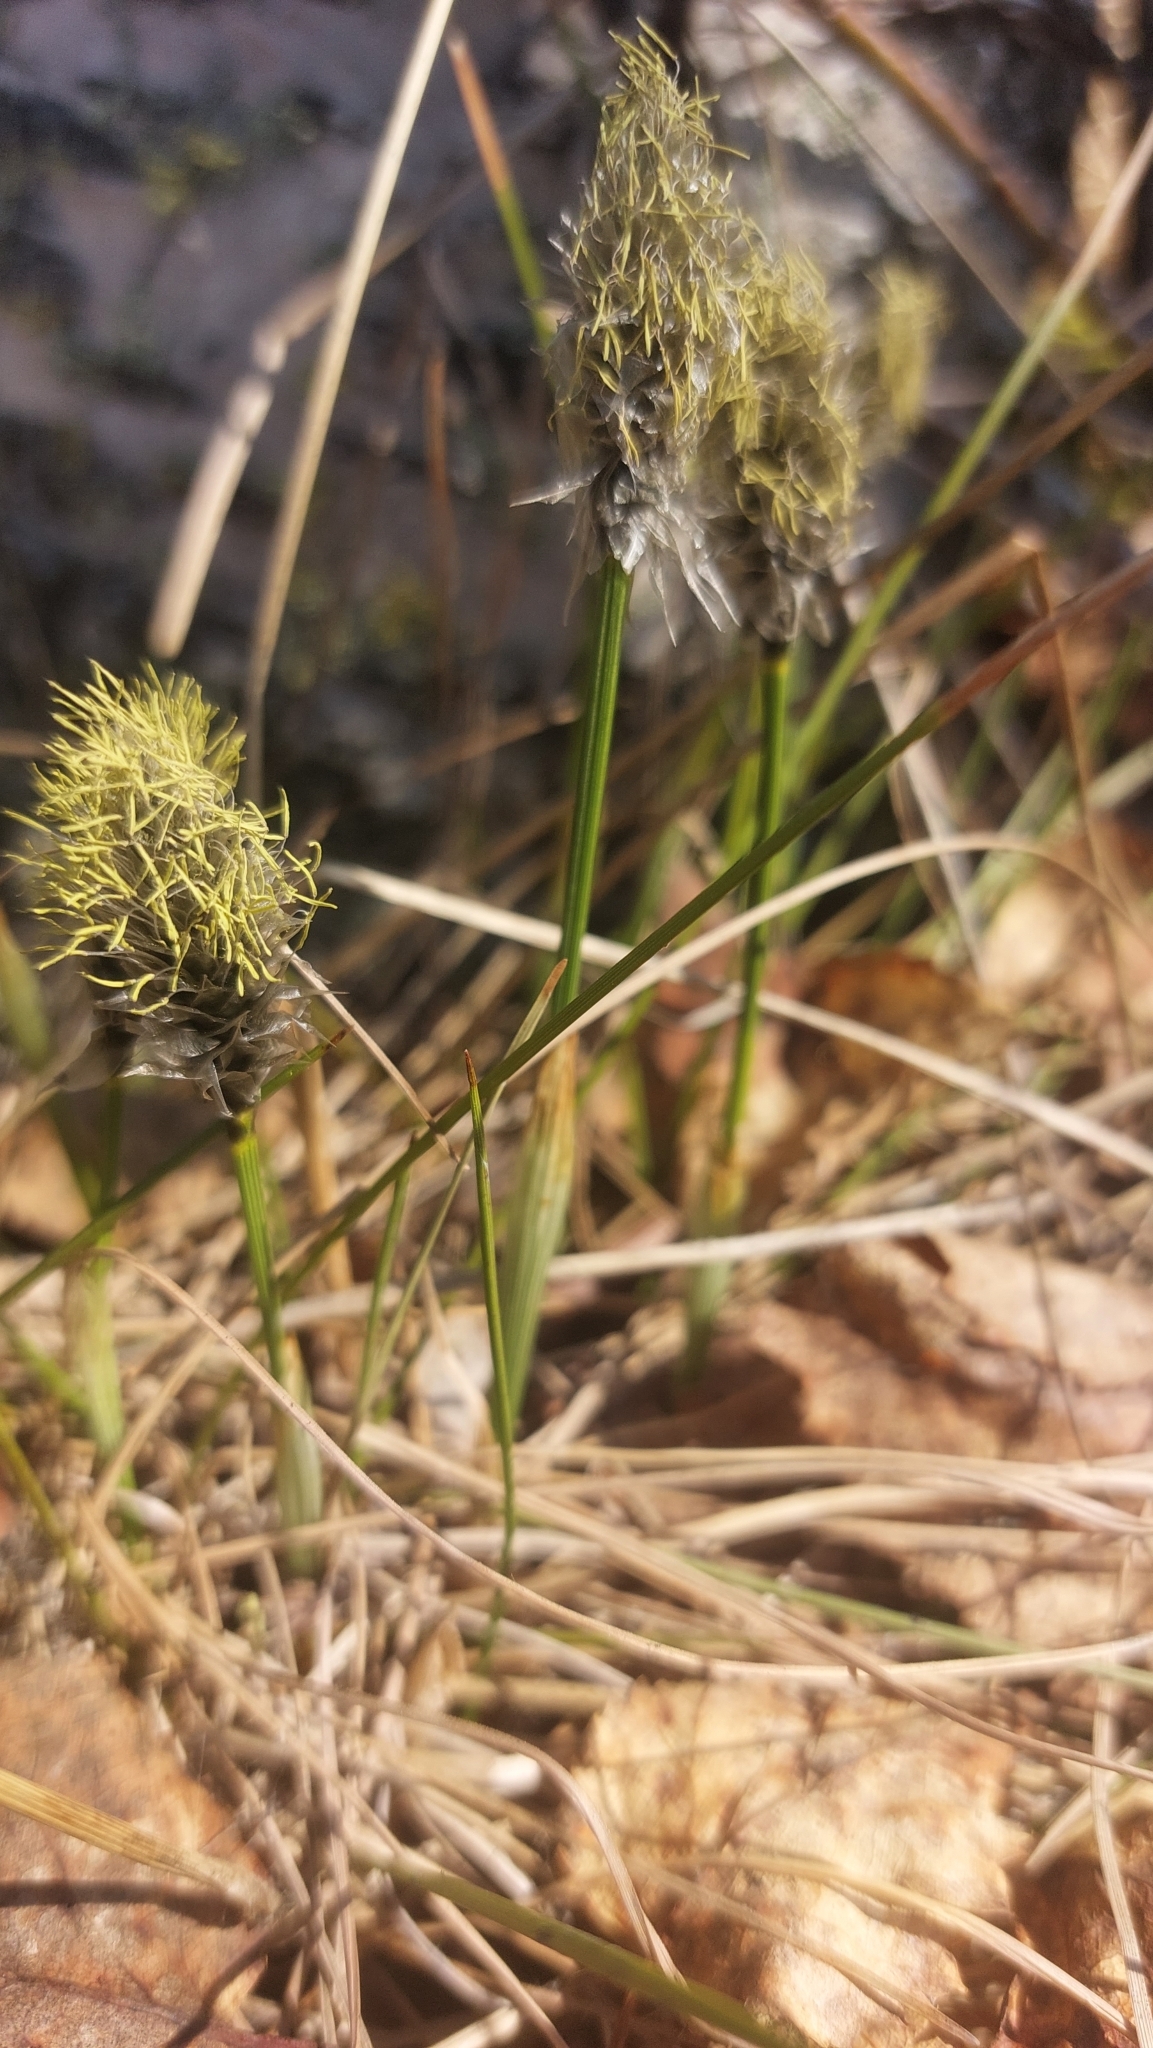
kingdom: Plantae
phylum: Tracheophyta
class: Liliopsida
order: Poales
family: Cyperaceae
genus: Eriophorum
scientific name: Eriophorum vaginatum
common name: Hare's-tail cottongrass
